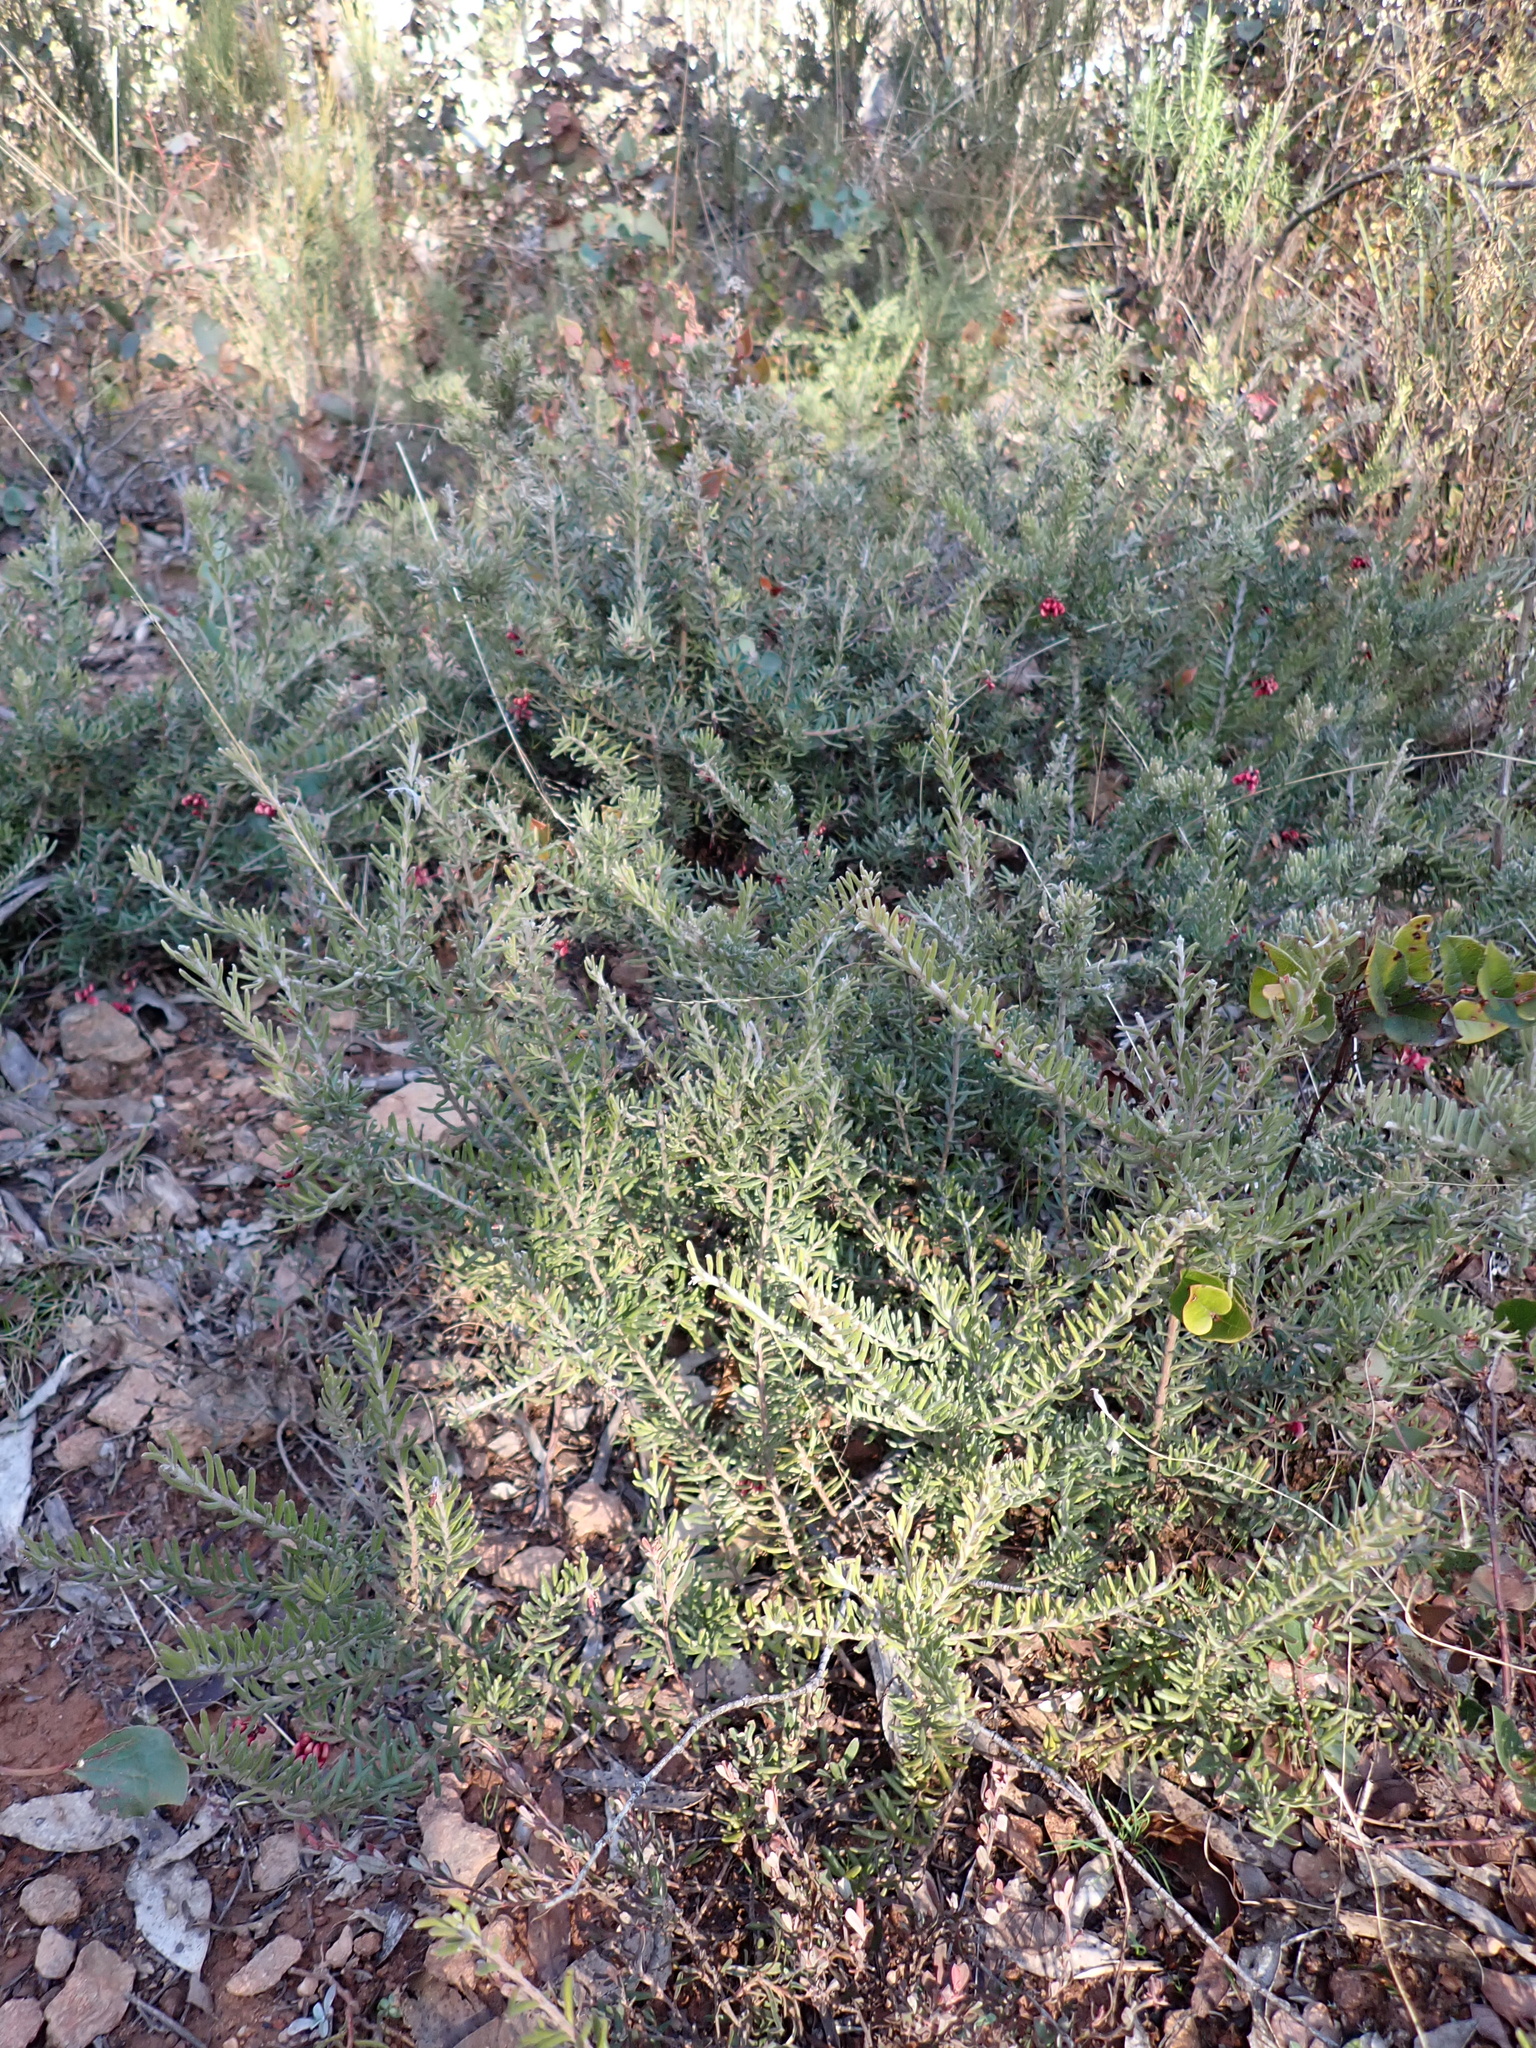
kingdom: Plantae
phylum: Tracheophyta
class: Magnoliopsida
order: Proteales
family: Proteaceae
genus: Grevillea
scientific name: Grevillea lanigera
